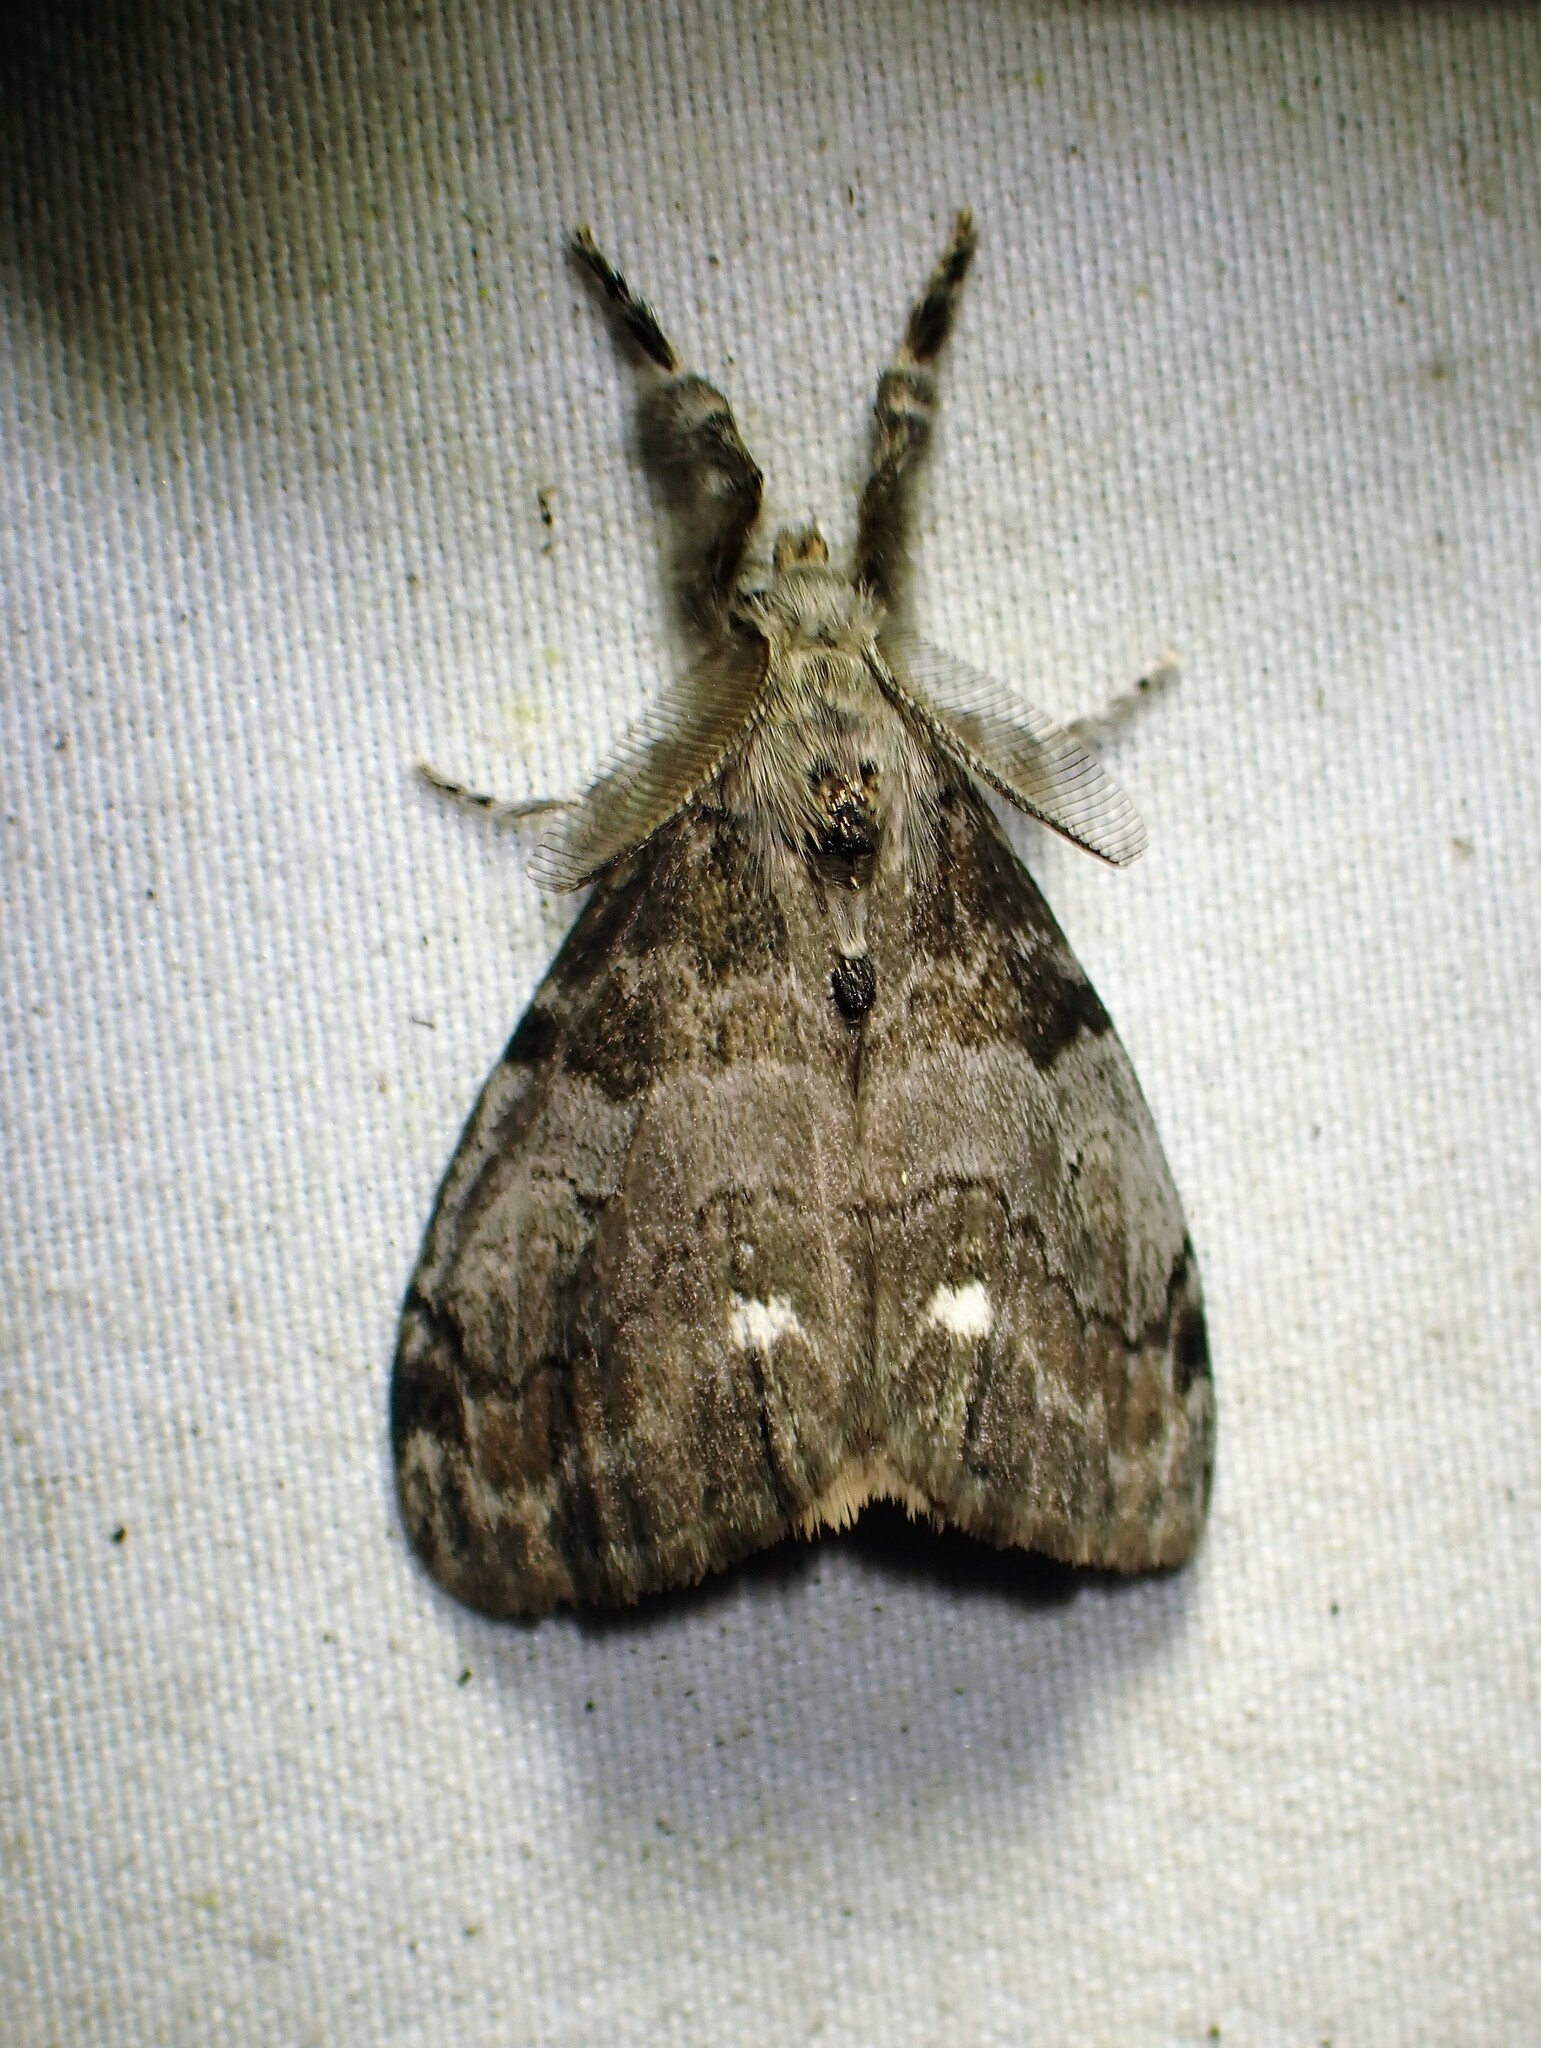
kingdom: Animalia
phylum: Arthropoda
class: Insecta
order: Lepidoptera
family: Erebidae
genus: Orgyia
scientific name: Orgyia leucostigma
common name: White-marked tussock moth
